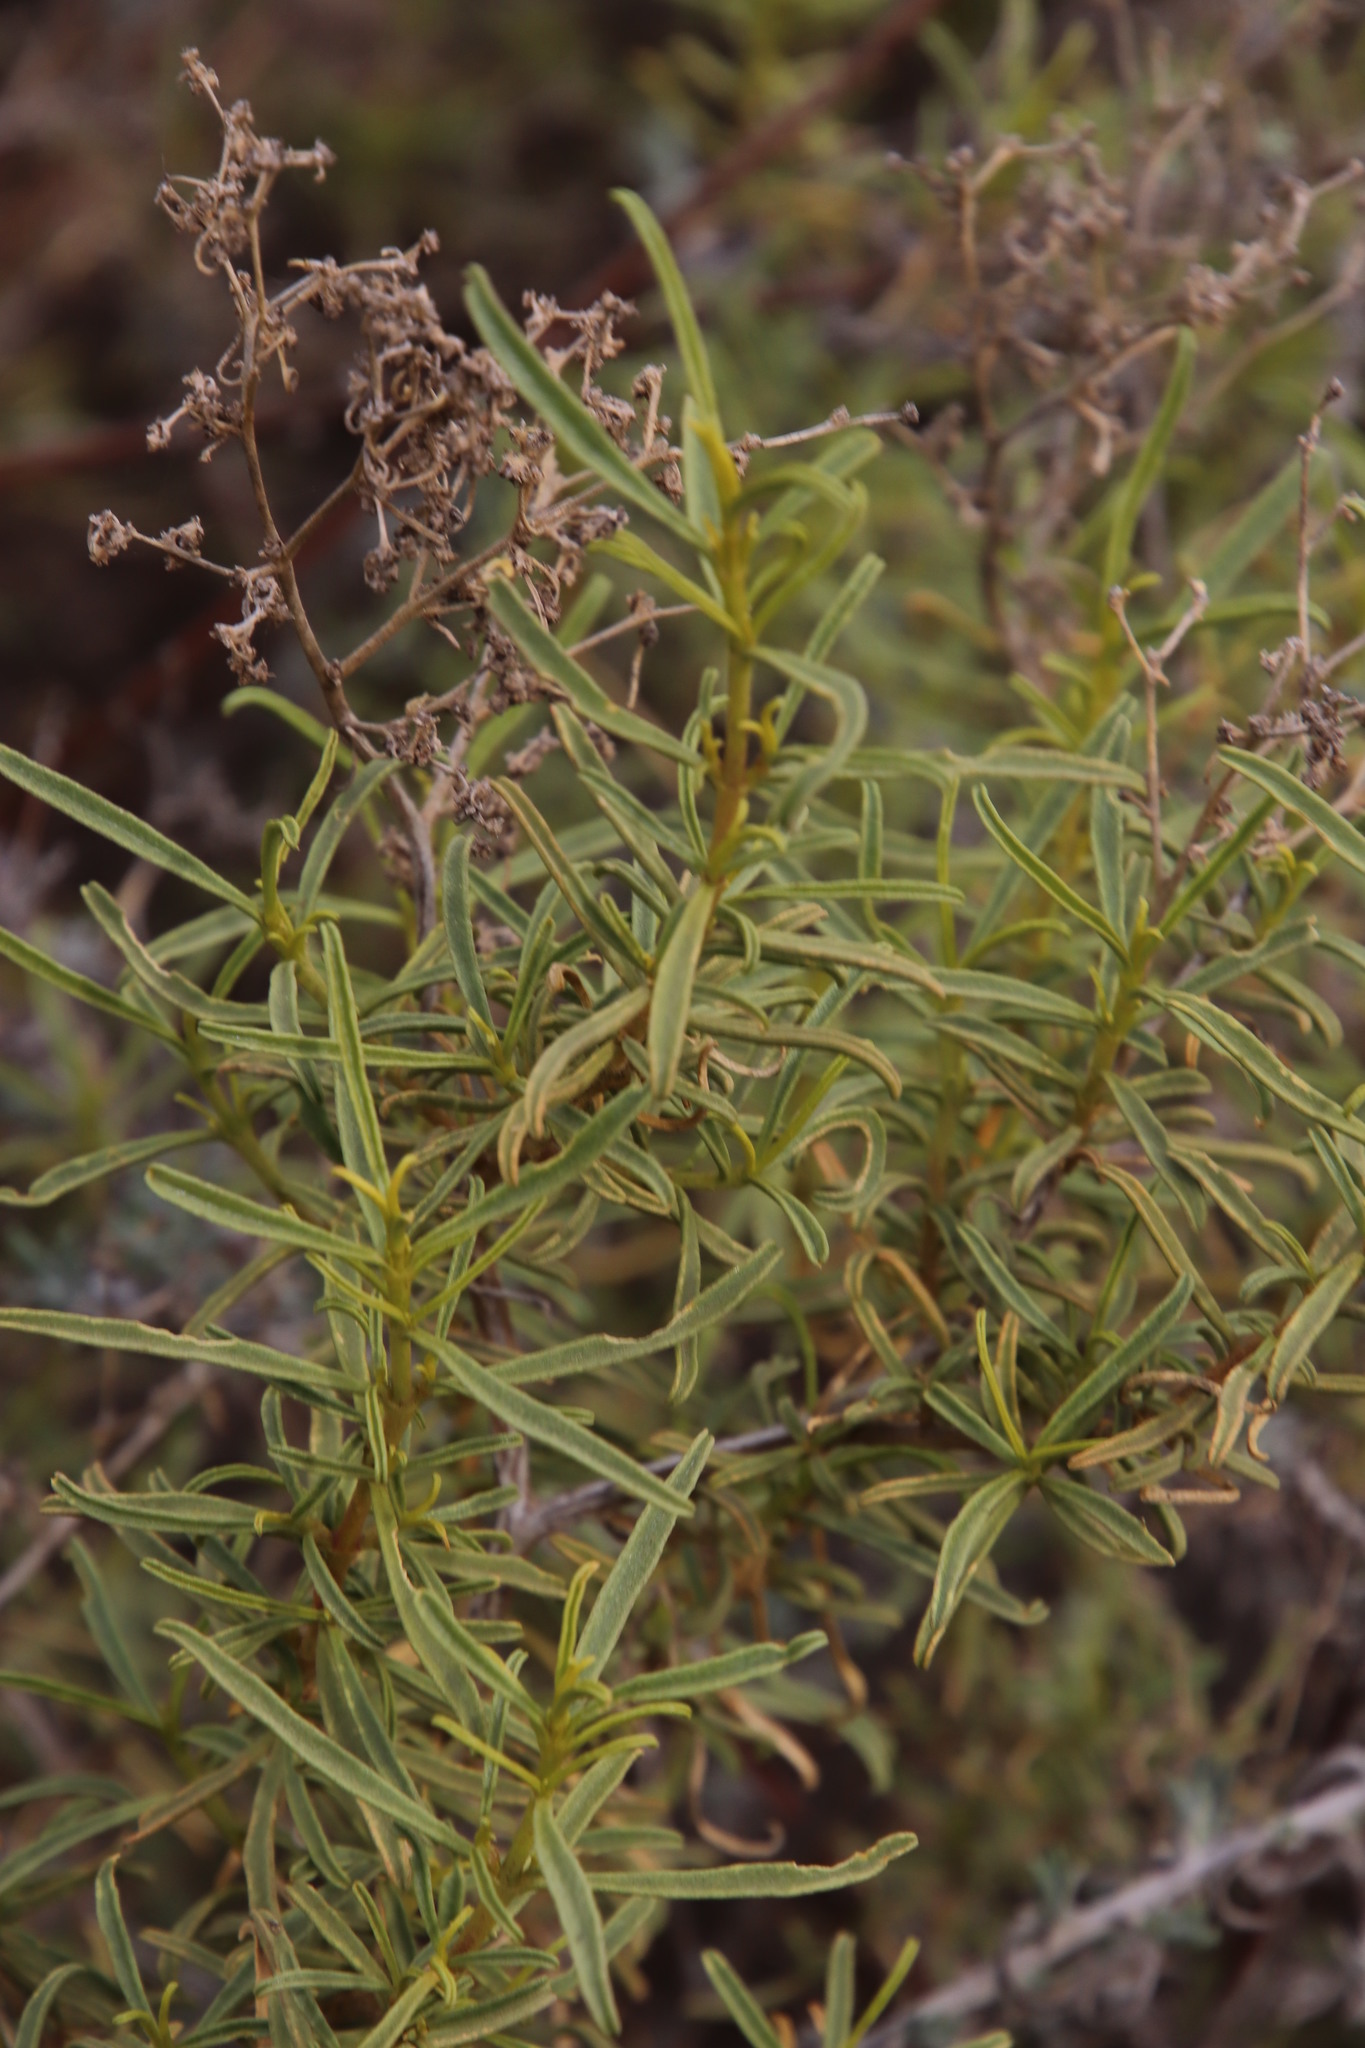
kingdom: Plantae
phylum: Tracheophyta
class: Magnoliopsida
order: Caryophyllales
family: Aizoaceae
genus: Aizoon
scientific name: Aizoon africanum
